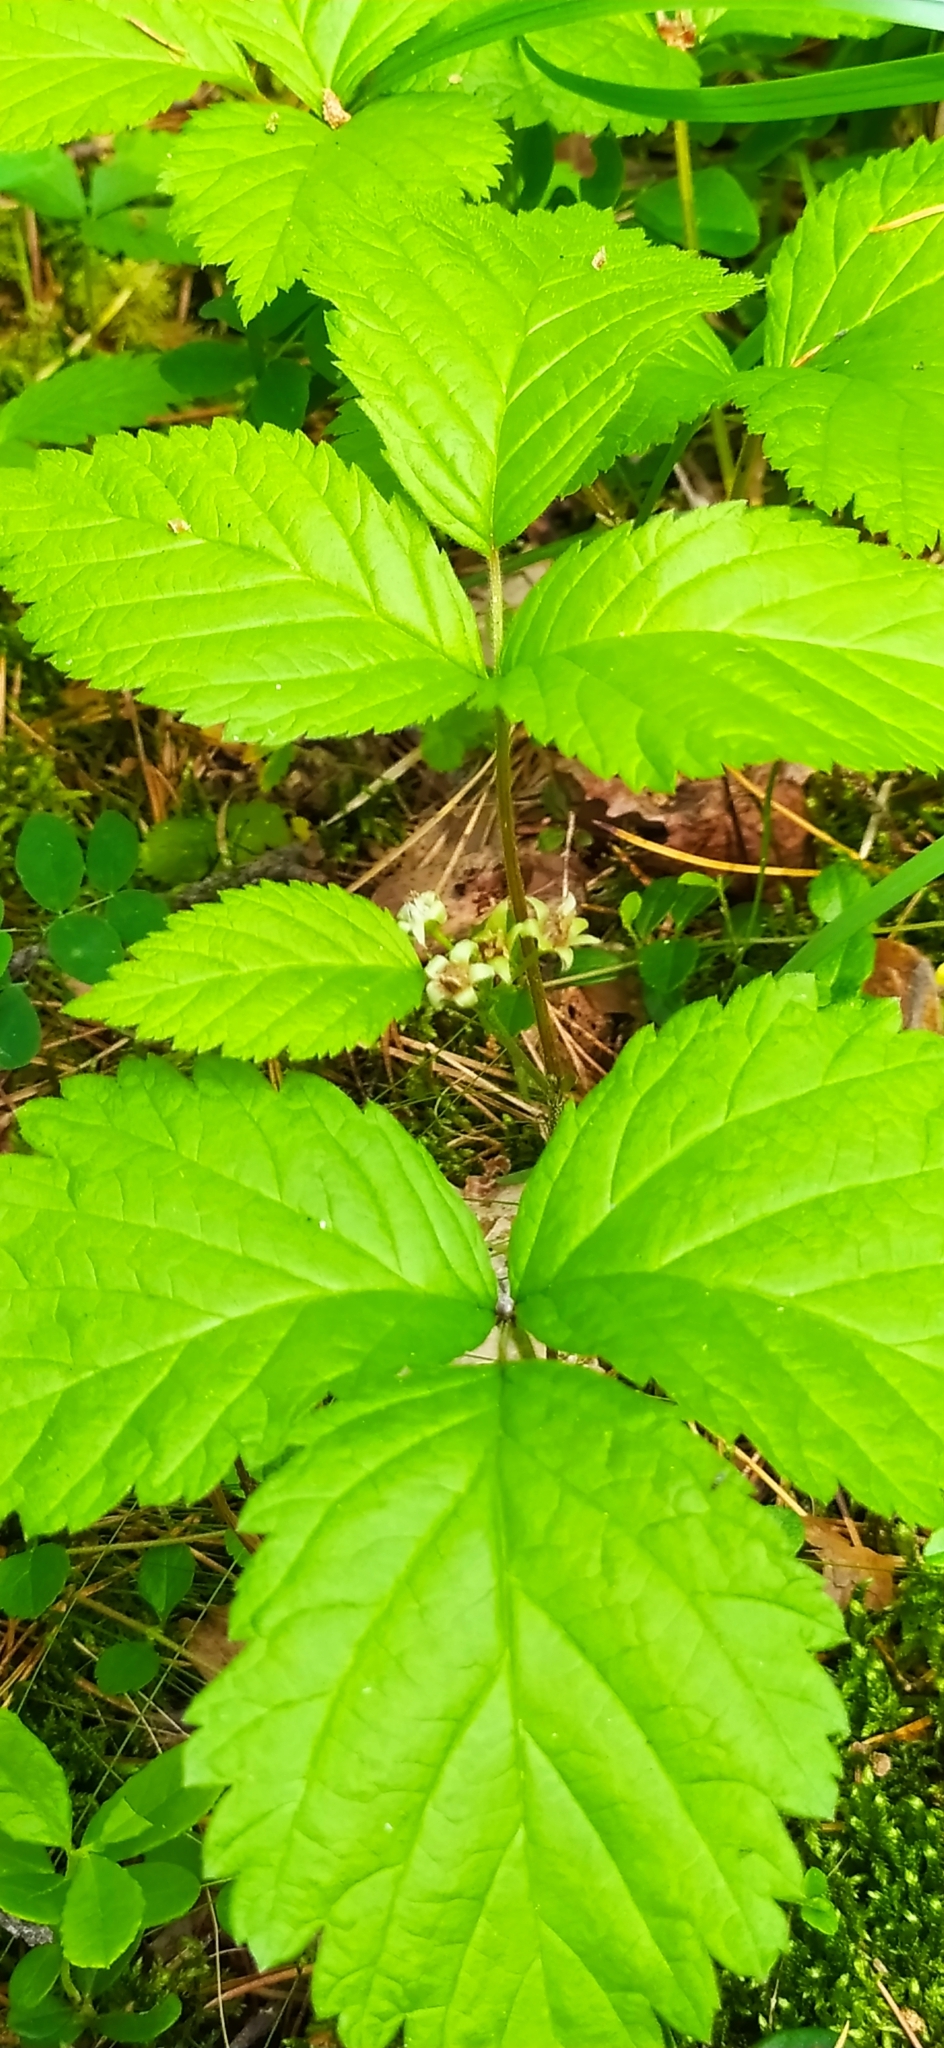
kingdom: Plantae
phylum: Tracheophyta
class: Magnoliopsida
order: Rosales
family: Rosaceae
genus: Rubus
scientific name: Rubus saxatilis
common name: Stone bramble
